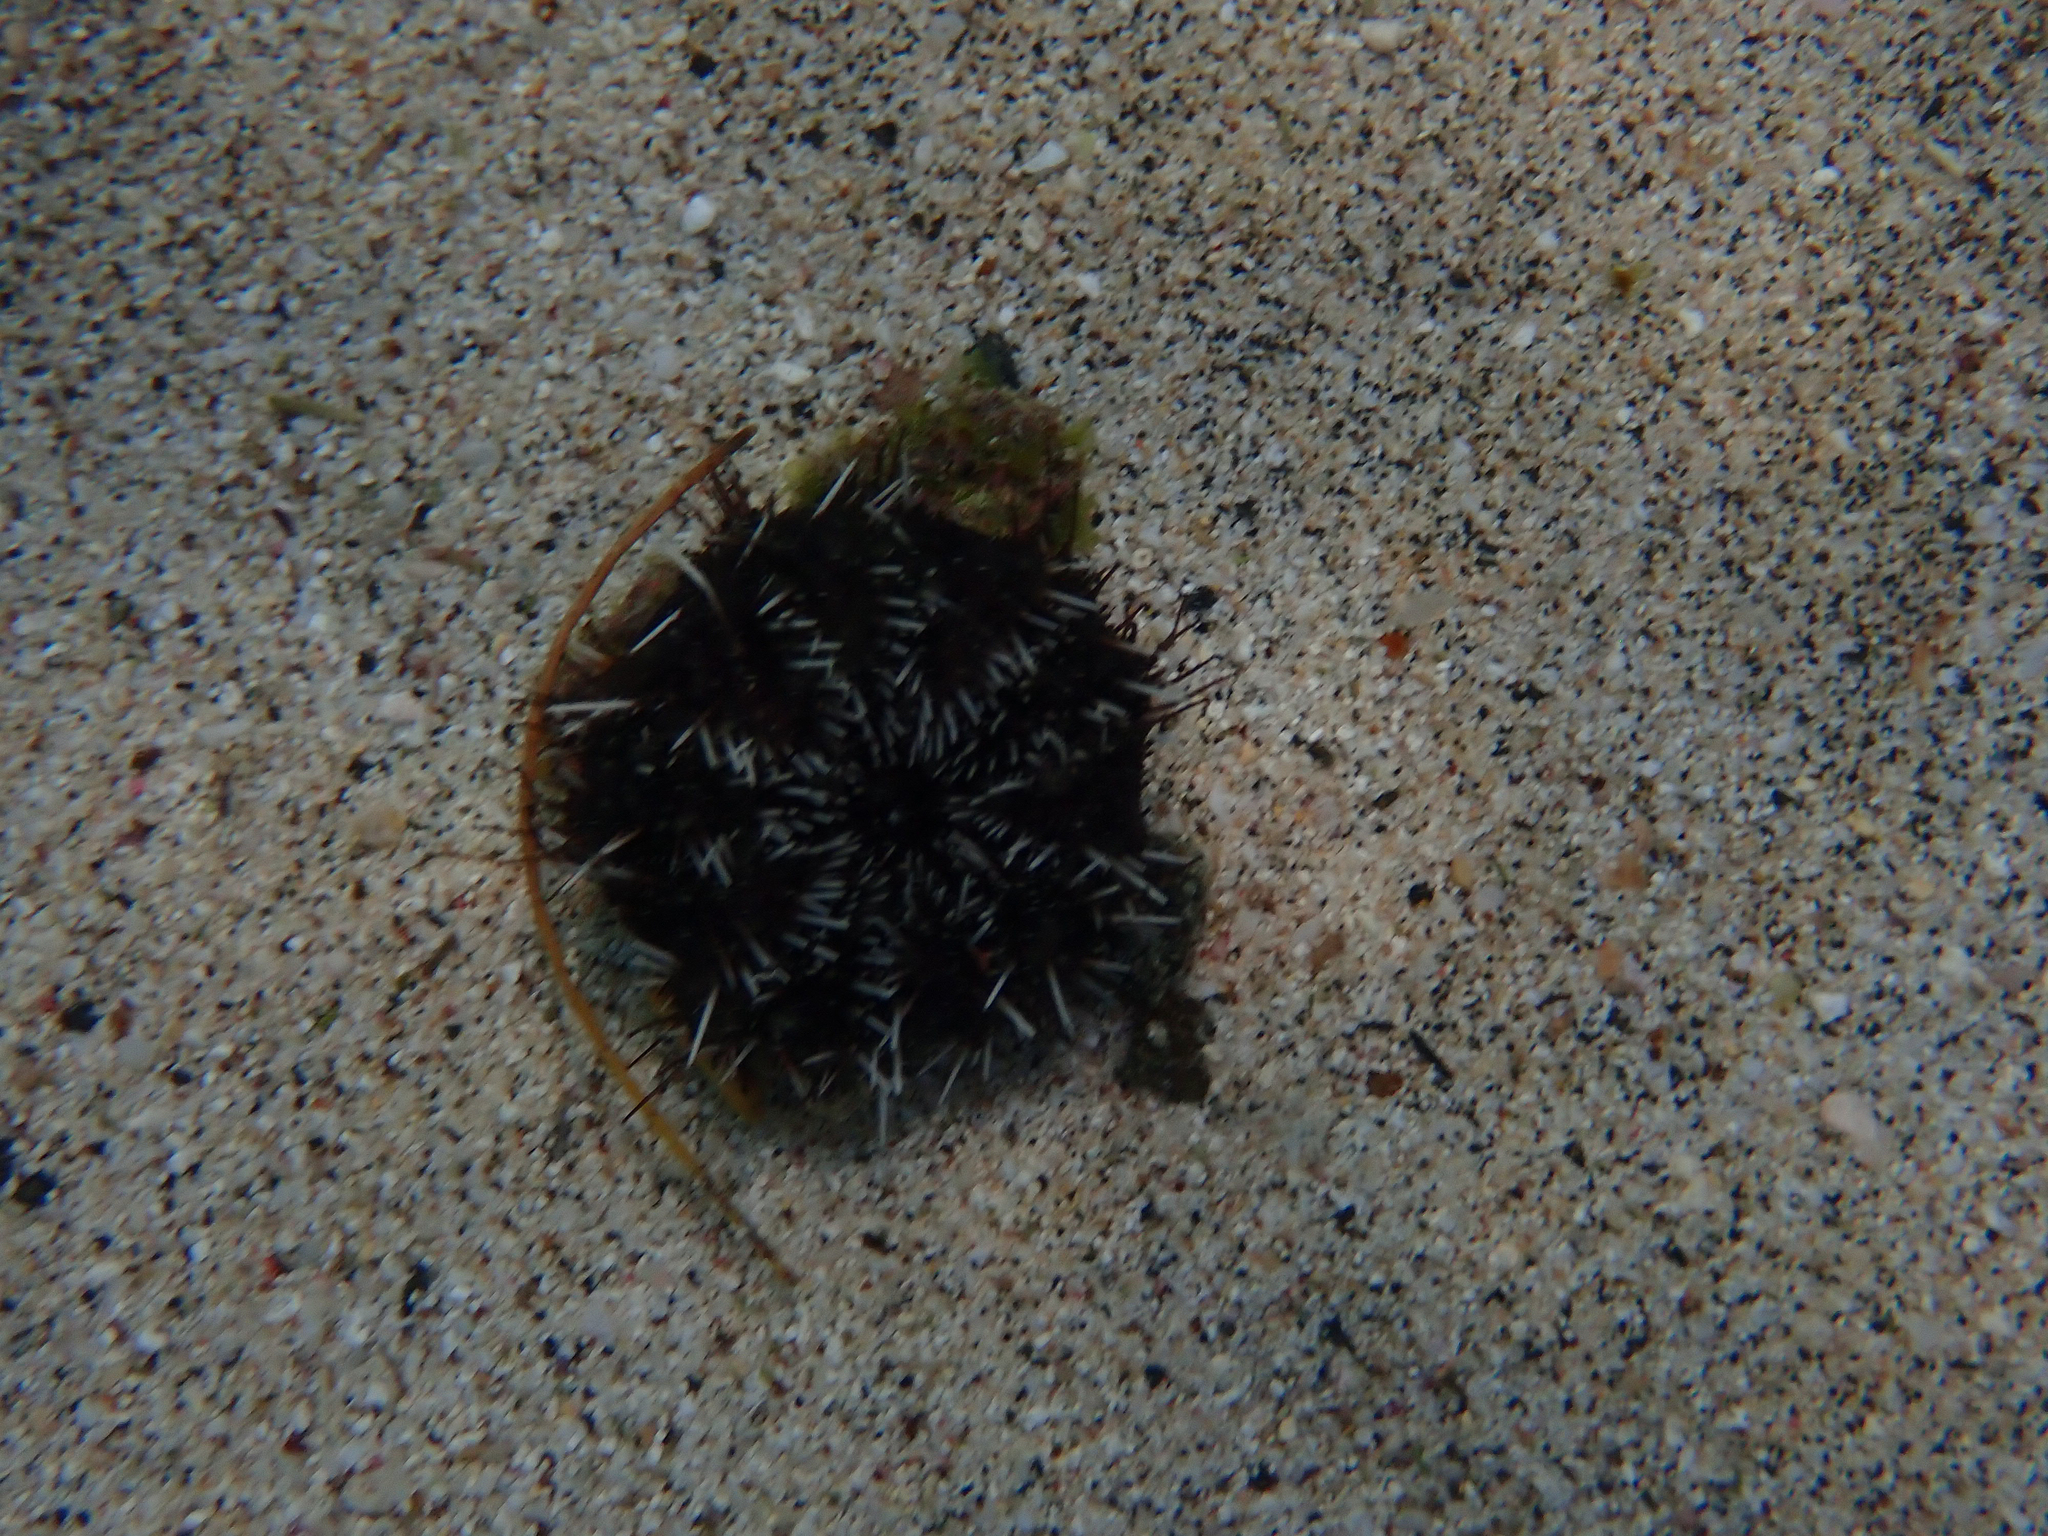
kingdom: Animalia
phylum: Echinodermata
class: Echinoidea
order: Camarodonta
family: Toxopneustidae
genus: Tripneustes
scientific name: Tripneustes gratilla
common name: Bischofsmützenseeigel
